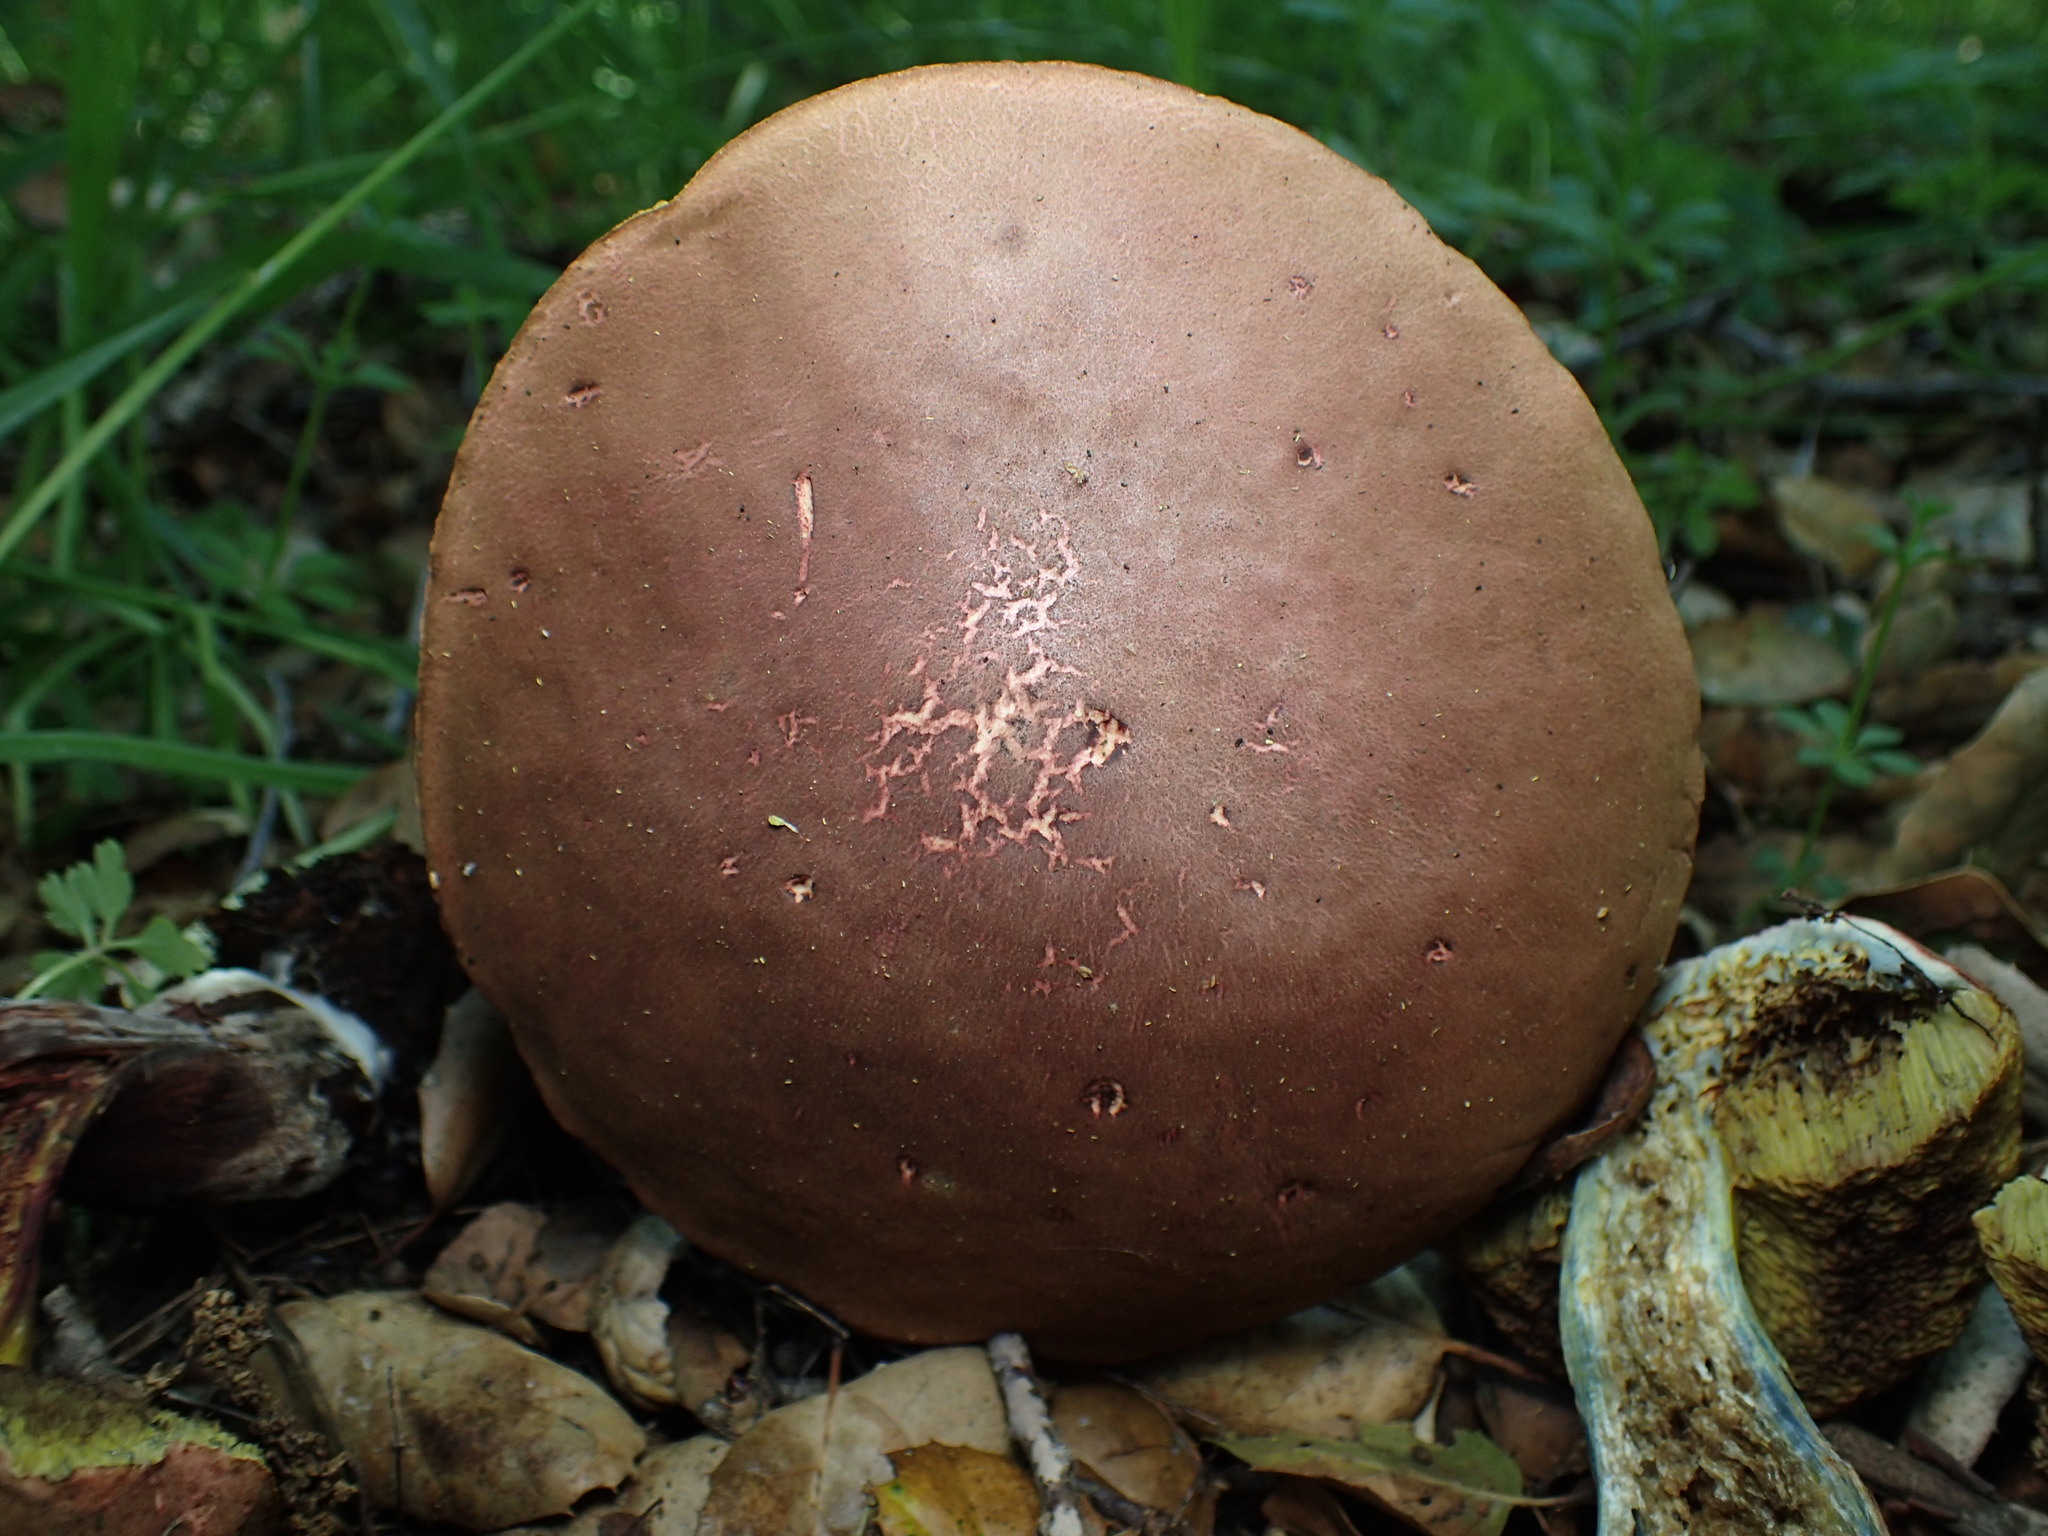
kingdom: Fungi
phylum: Basidiomycota
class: Agaricomycetes
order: Boletales
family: Boletaceae
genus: Xerocomellus
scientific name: Xerocomellus dryophilus
